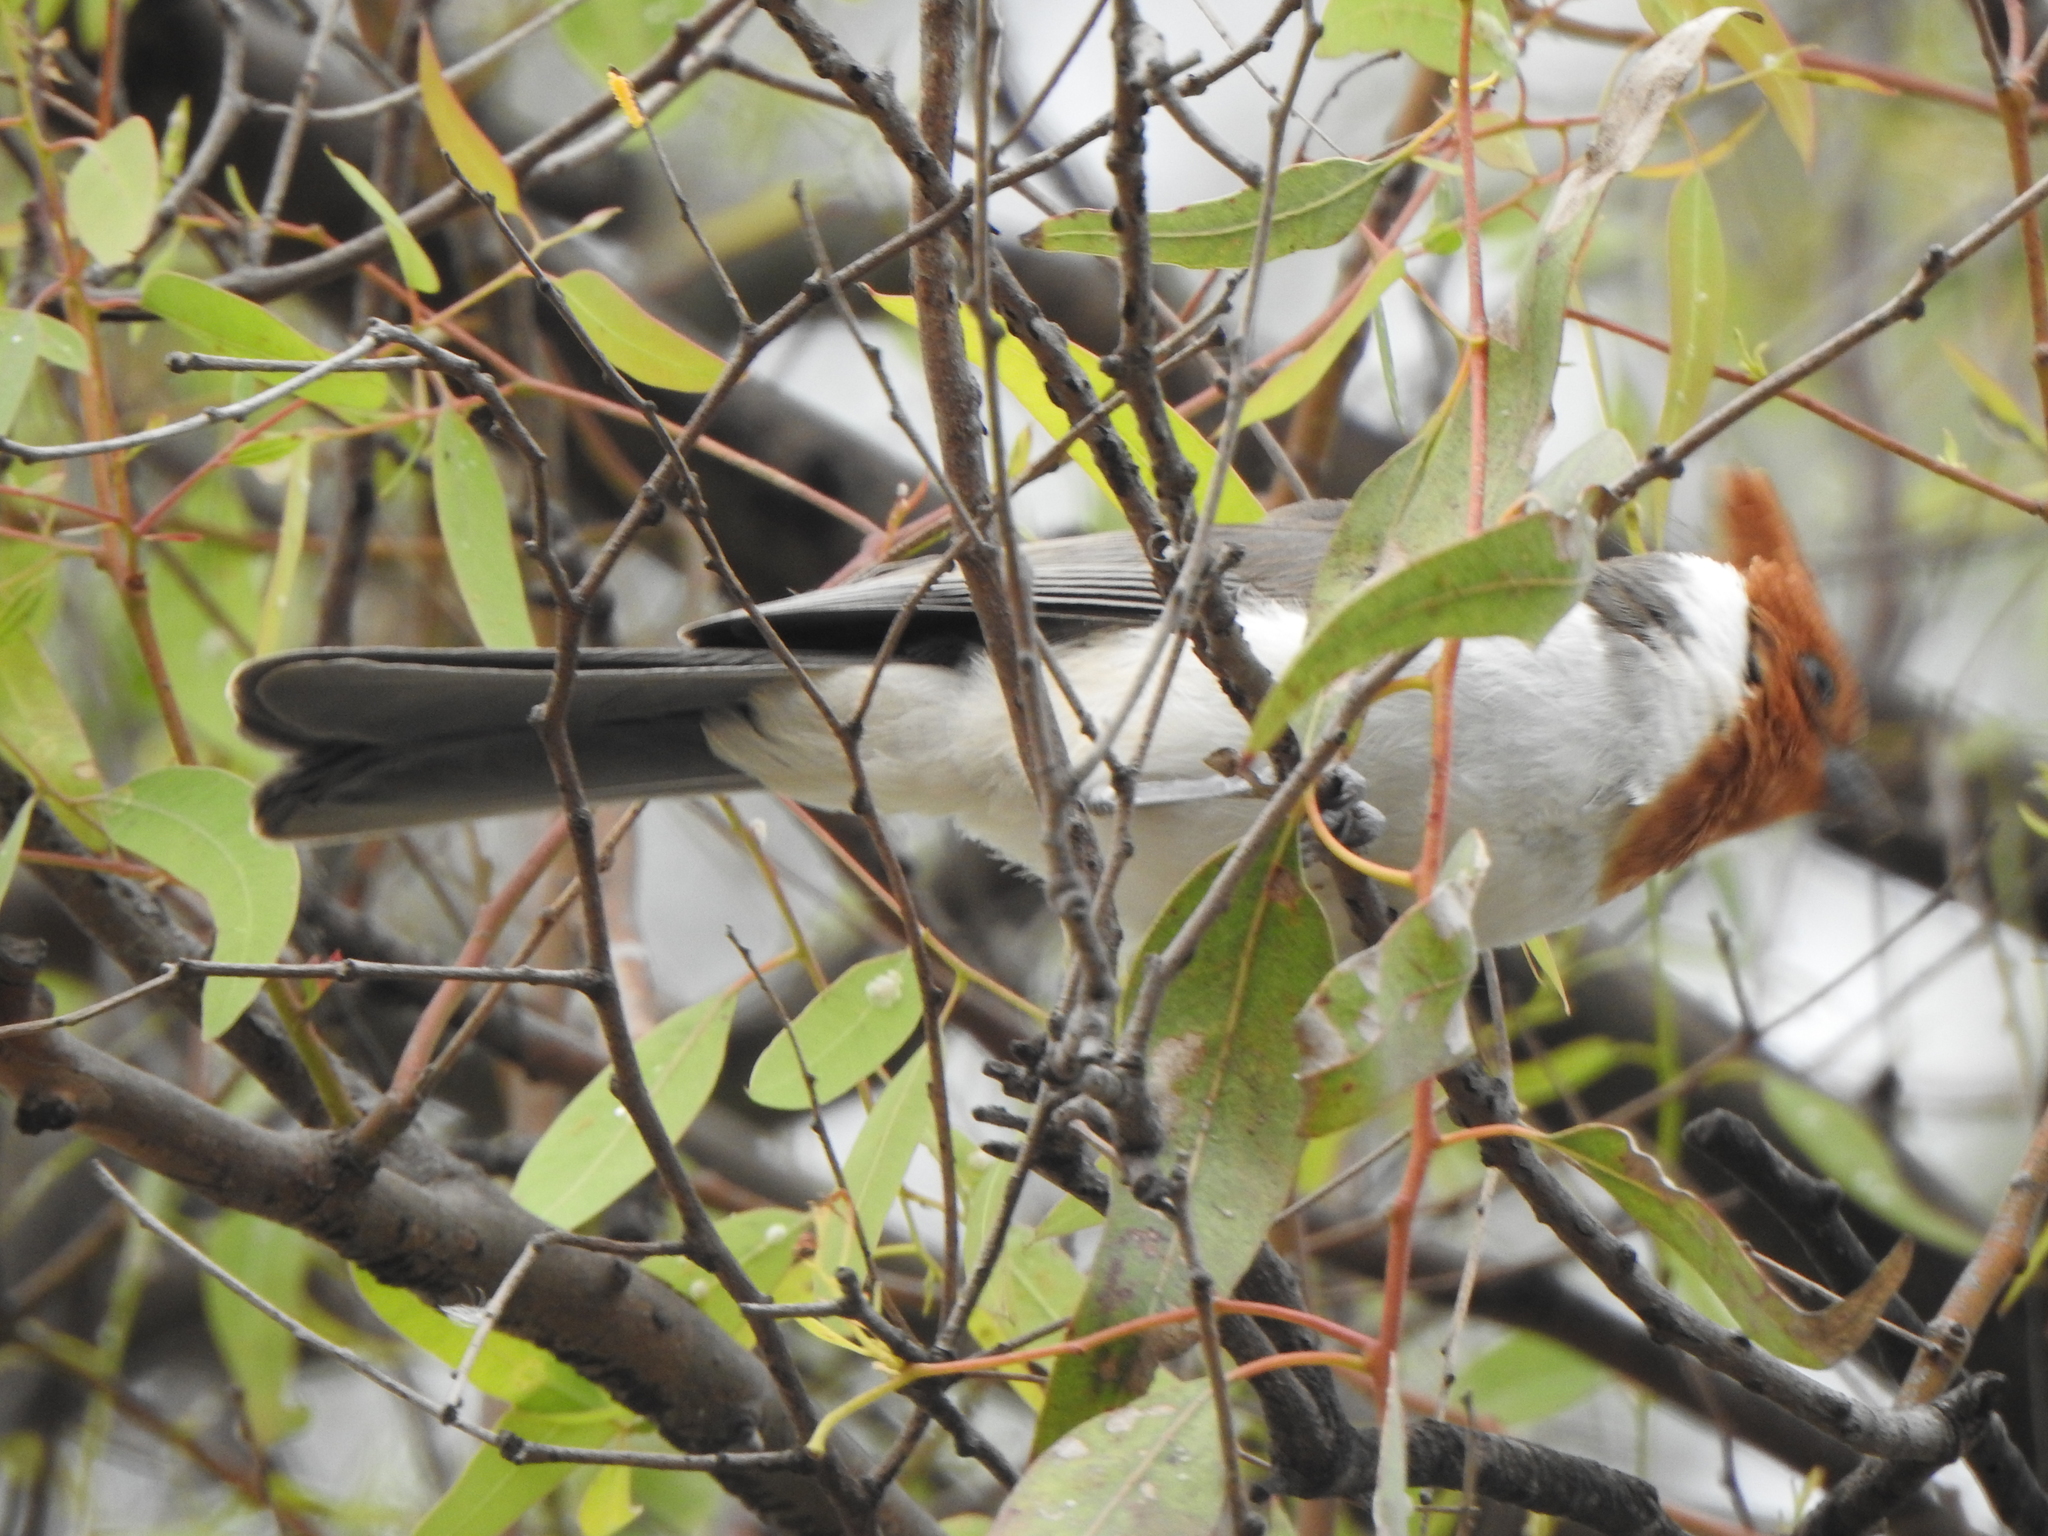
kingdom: Animalia
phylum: Chordata
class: Aves
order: Passeriformes
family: Thraupidae
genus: Paroaria
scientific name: Paroaria coronata
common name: Red-crested cardinal
